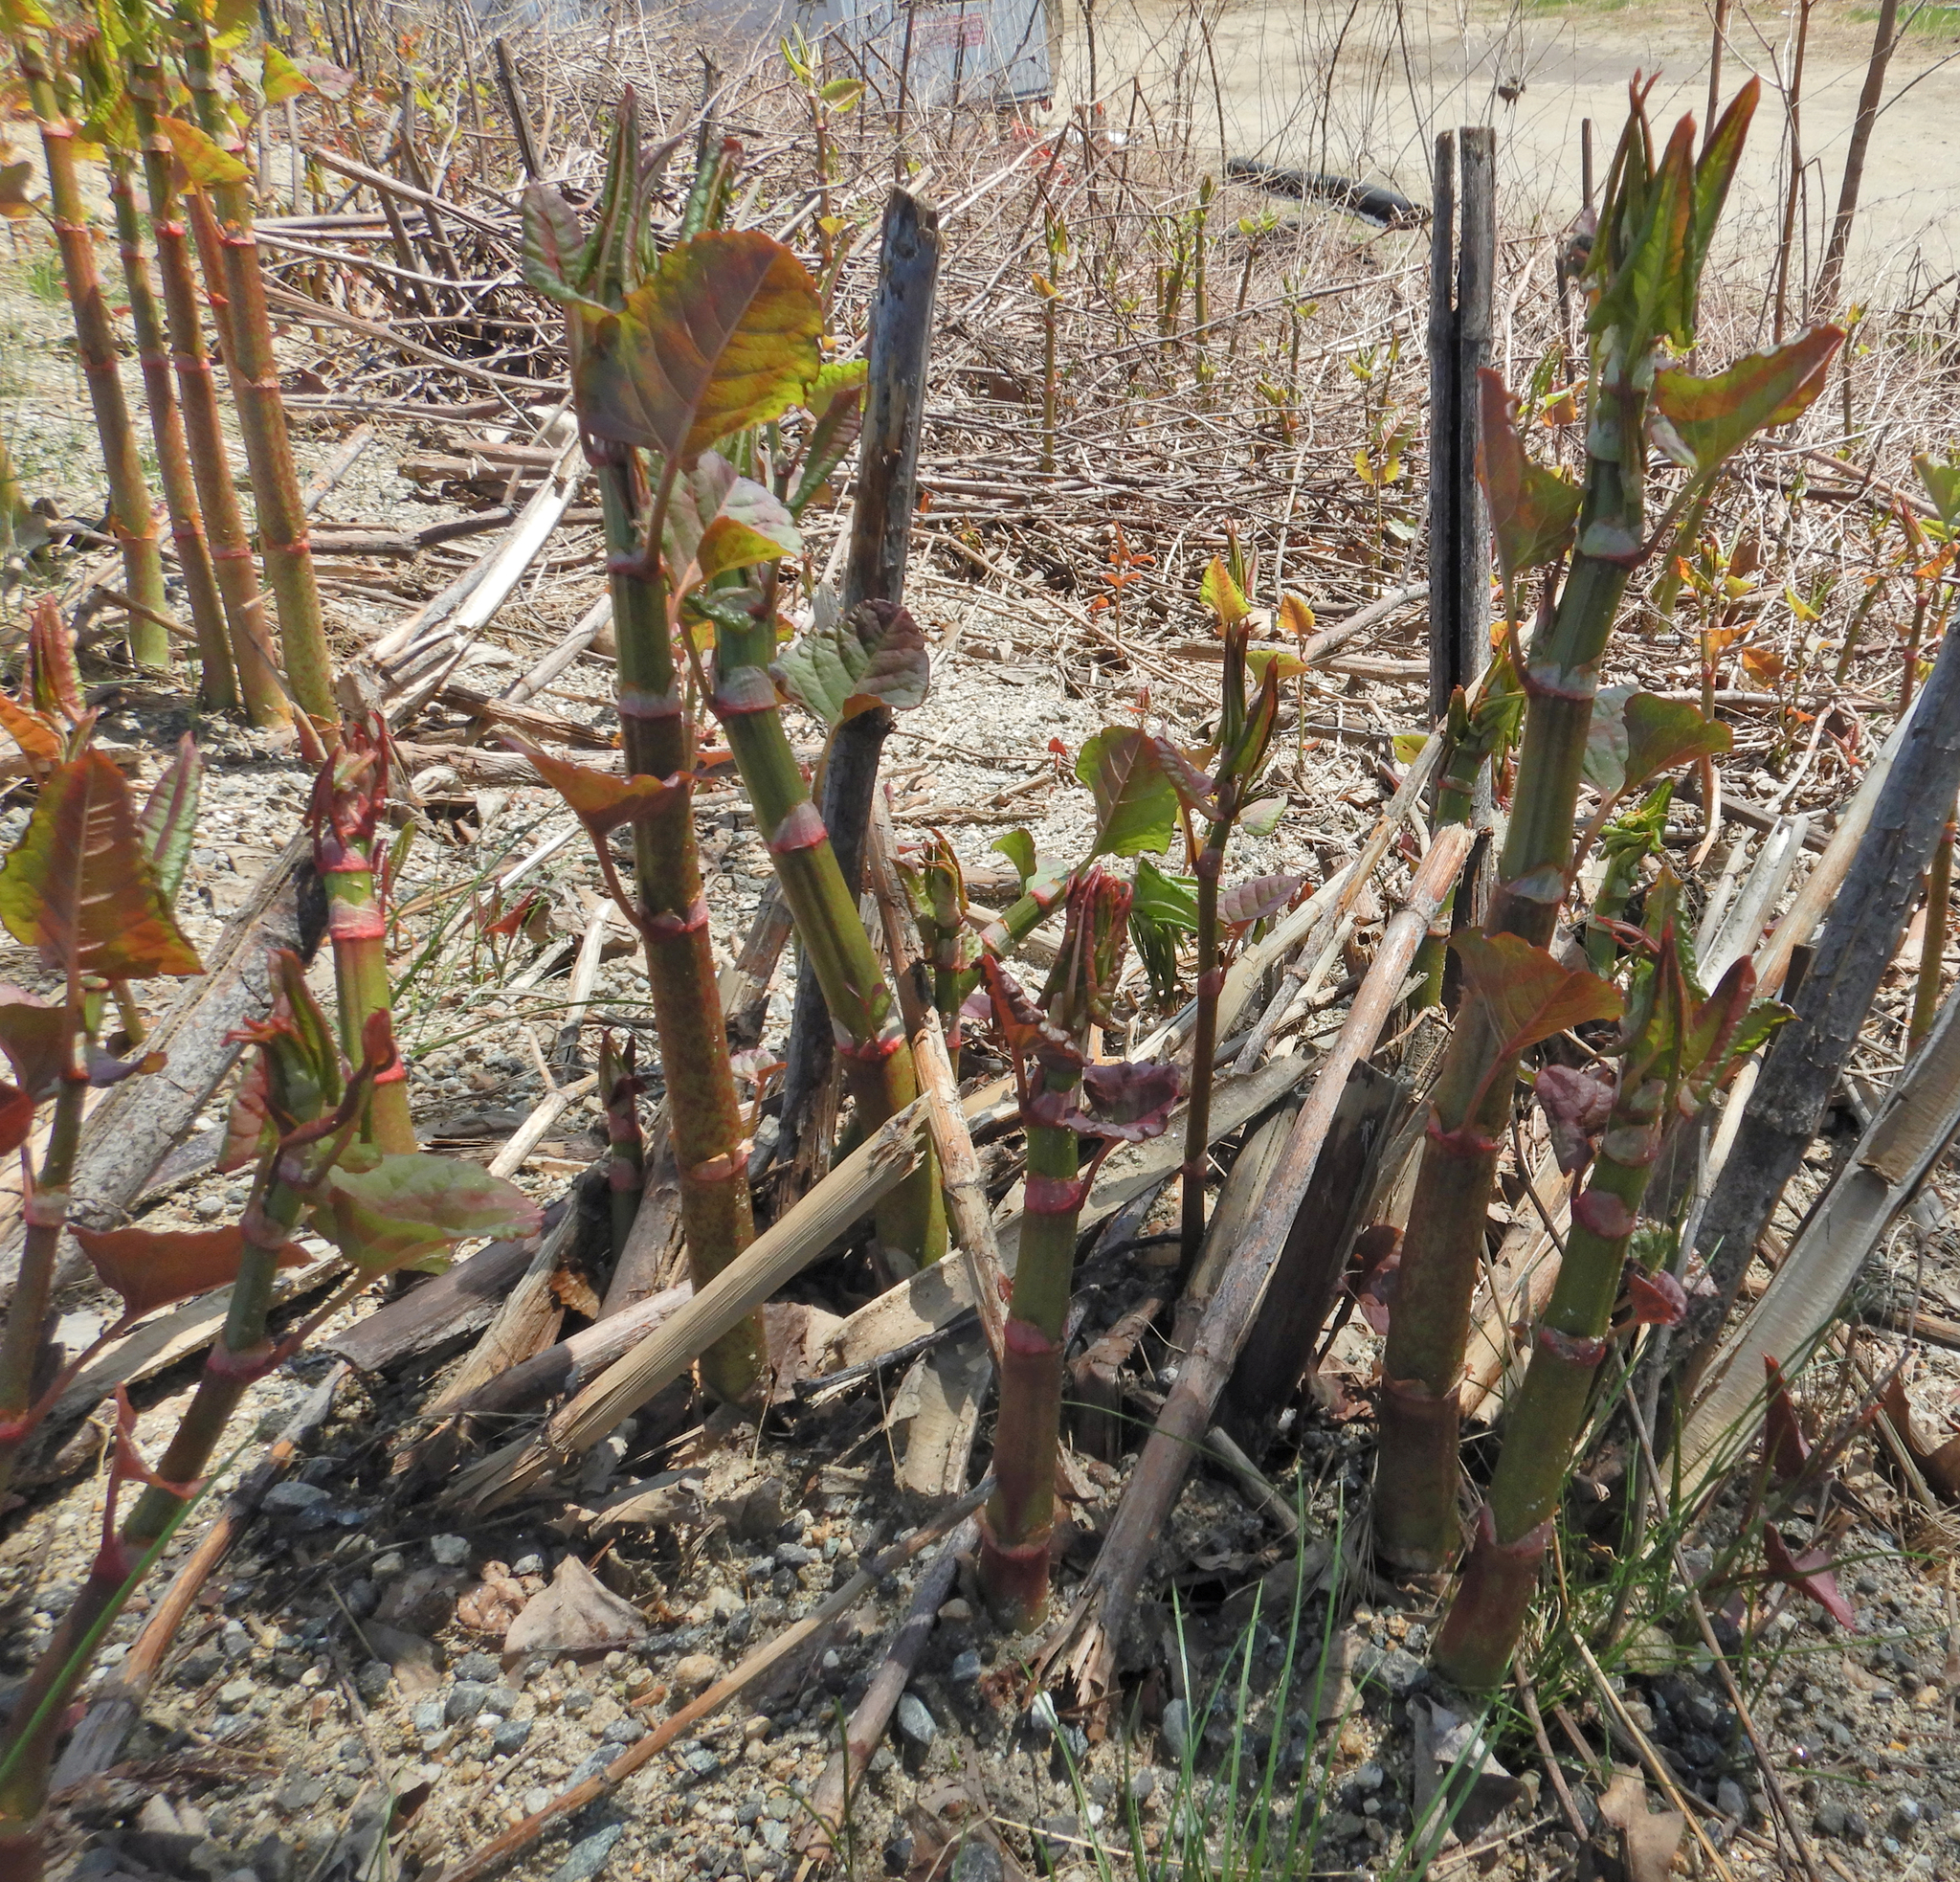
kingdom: Plantae
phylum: Tracheophyta
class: Magnoliopsida
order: Caryophyllales
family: Polygonaceae
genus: Reynoutria
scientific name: Reynoutria japonica
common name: Japanese knotweed
